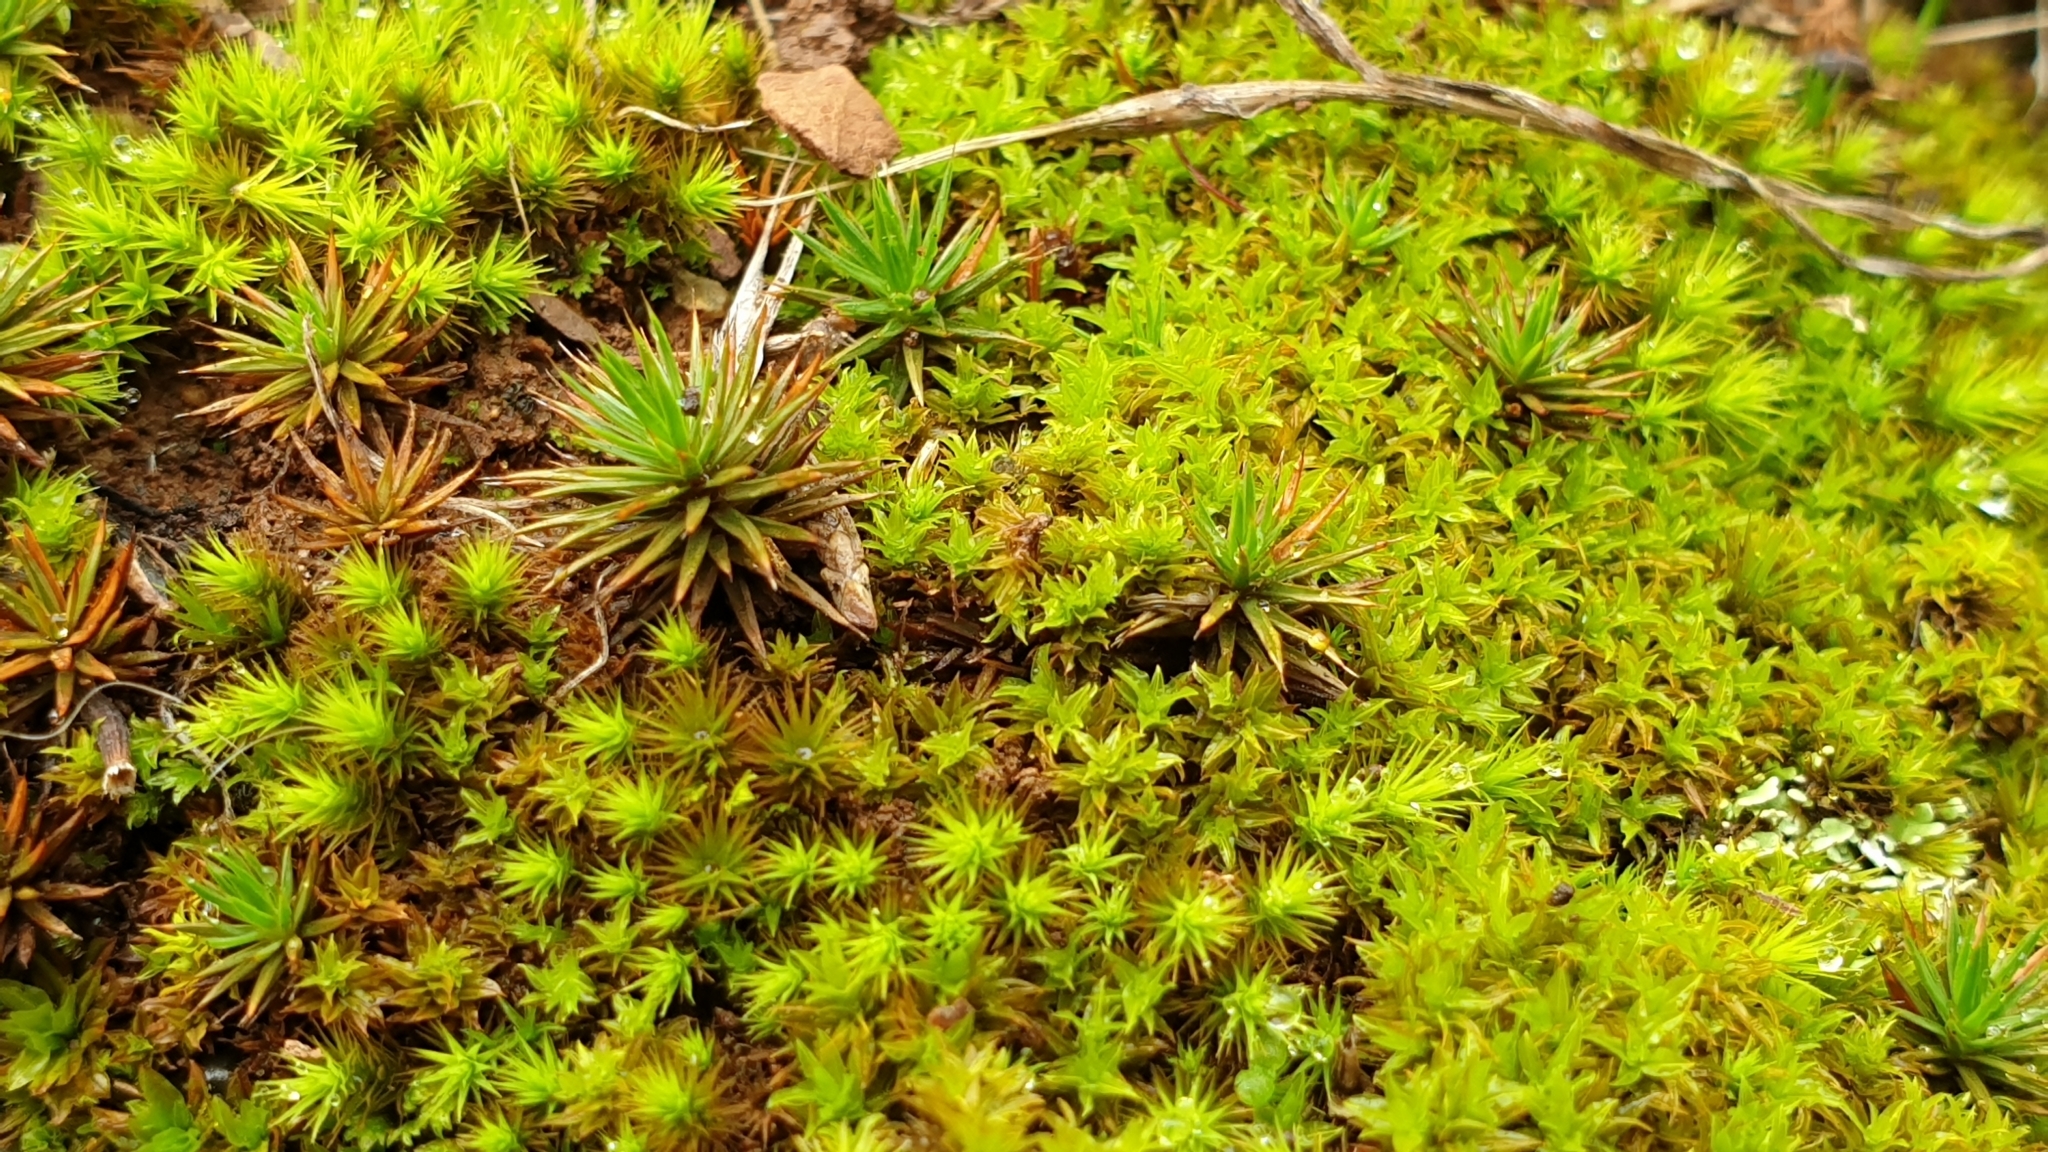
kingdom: Plantae
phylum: Bryophyta
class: Polytrichopsida
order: Polytrichales
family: Polytrichaceae
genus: Polytrichum
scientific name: Polytrichum juniperinum
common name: Juniper haircap moss
